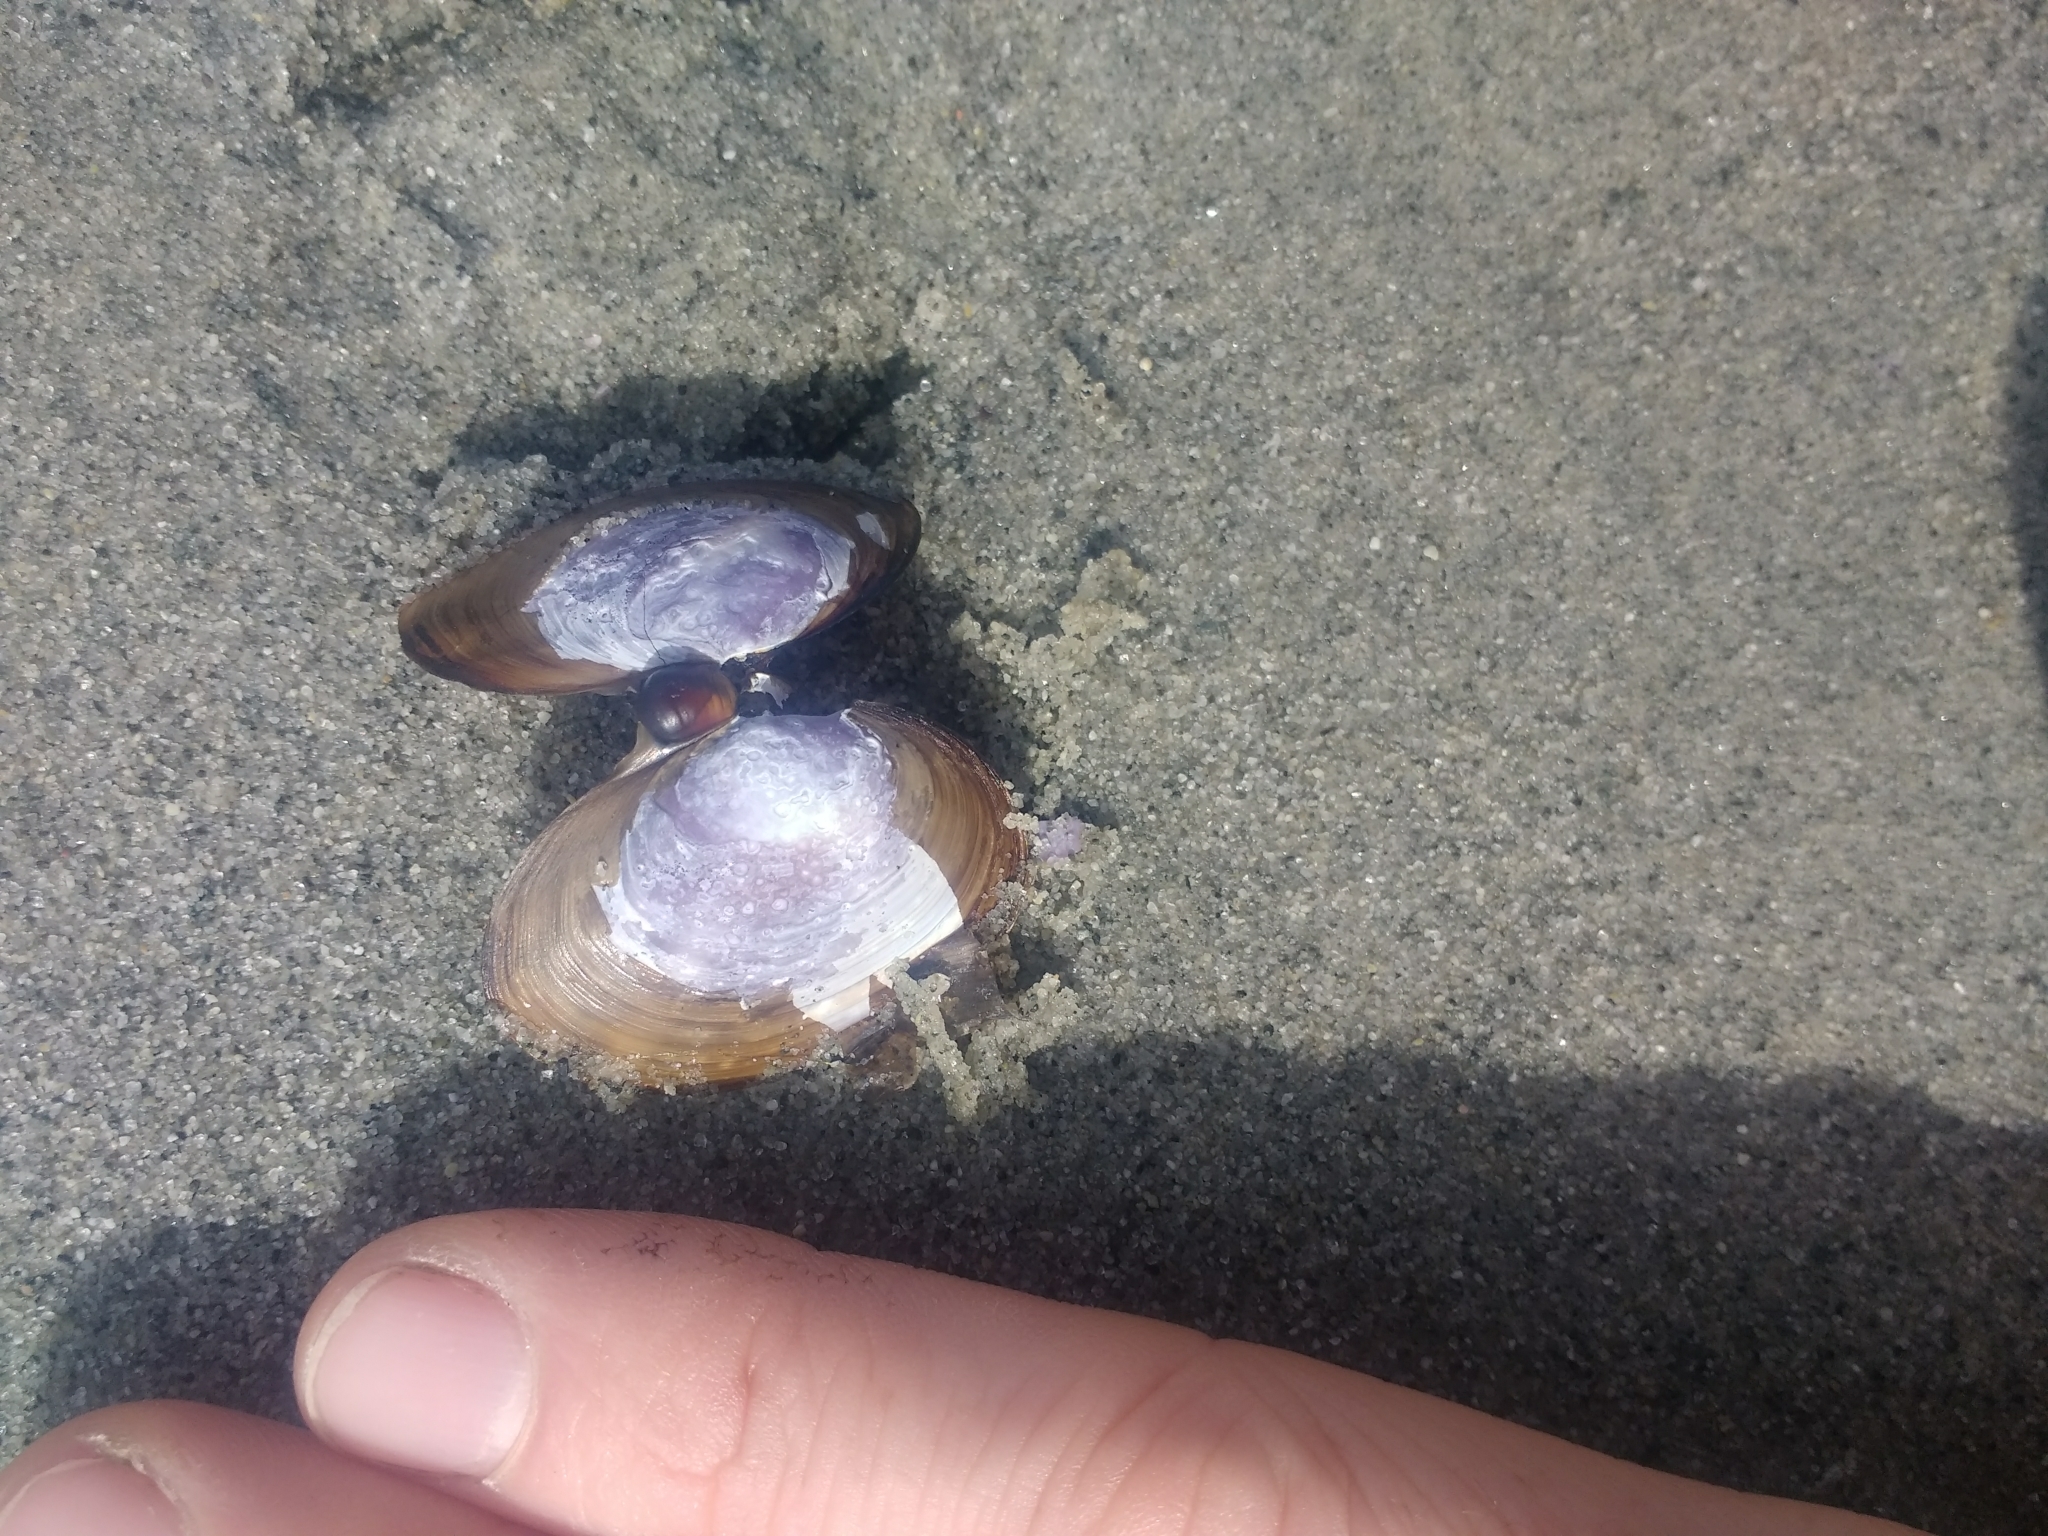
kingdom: Animalia
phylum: Mollusca
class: Bivalvia
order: Cardiida
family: Psammobiidae
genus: Nuttallia
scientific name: Nuttallia obscurata
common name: Purple mahogany-clam
